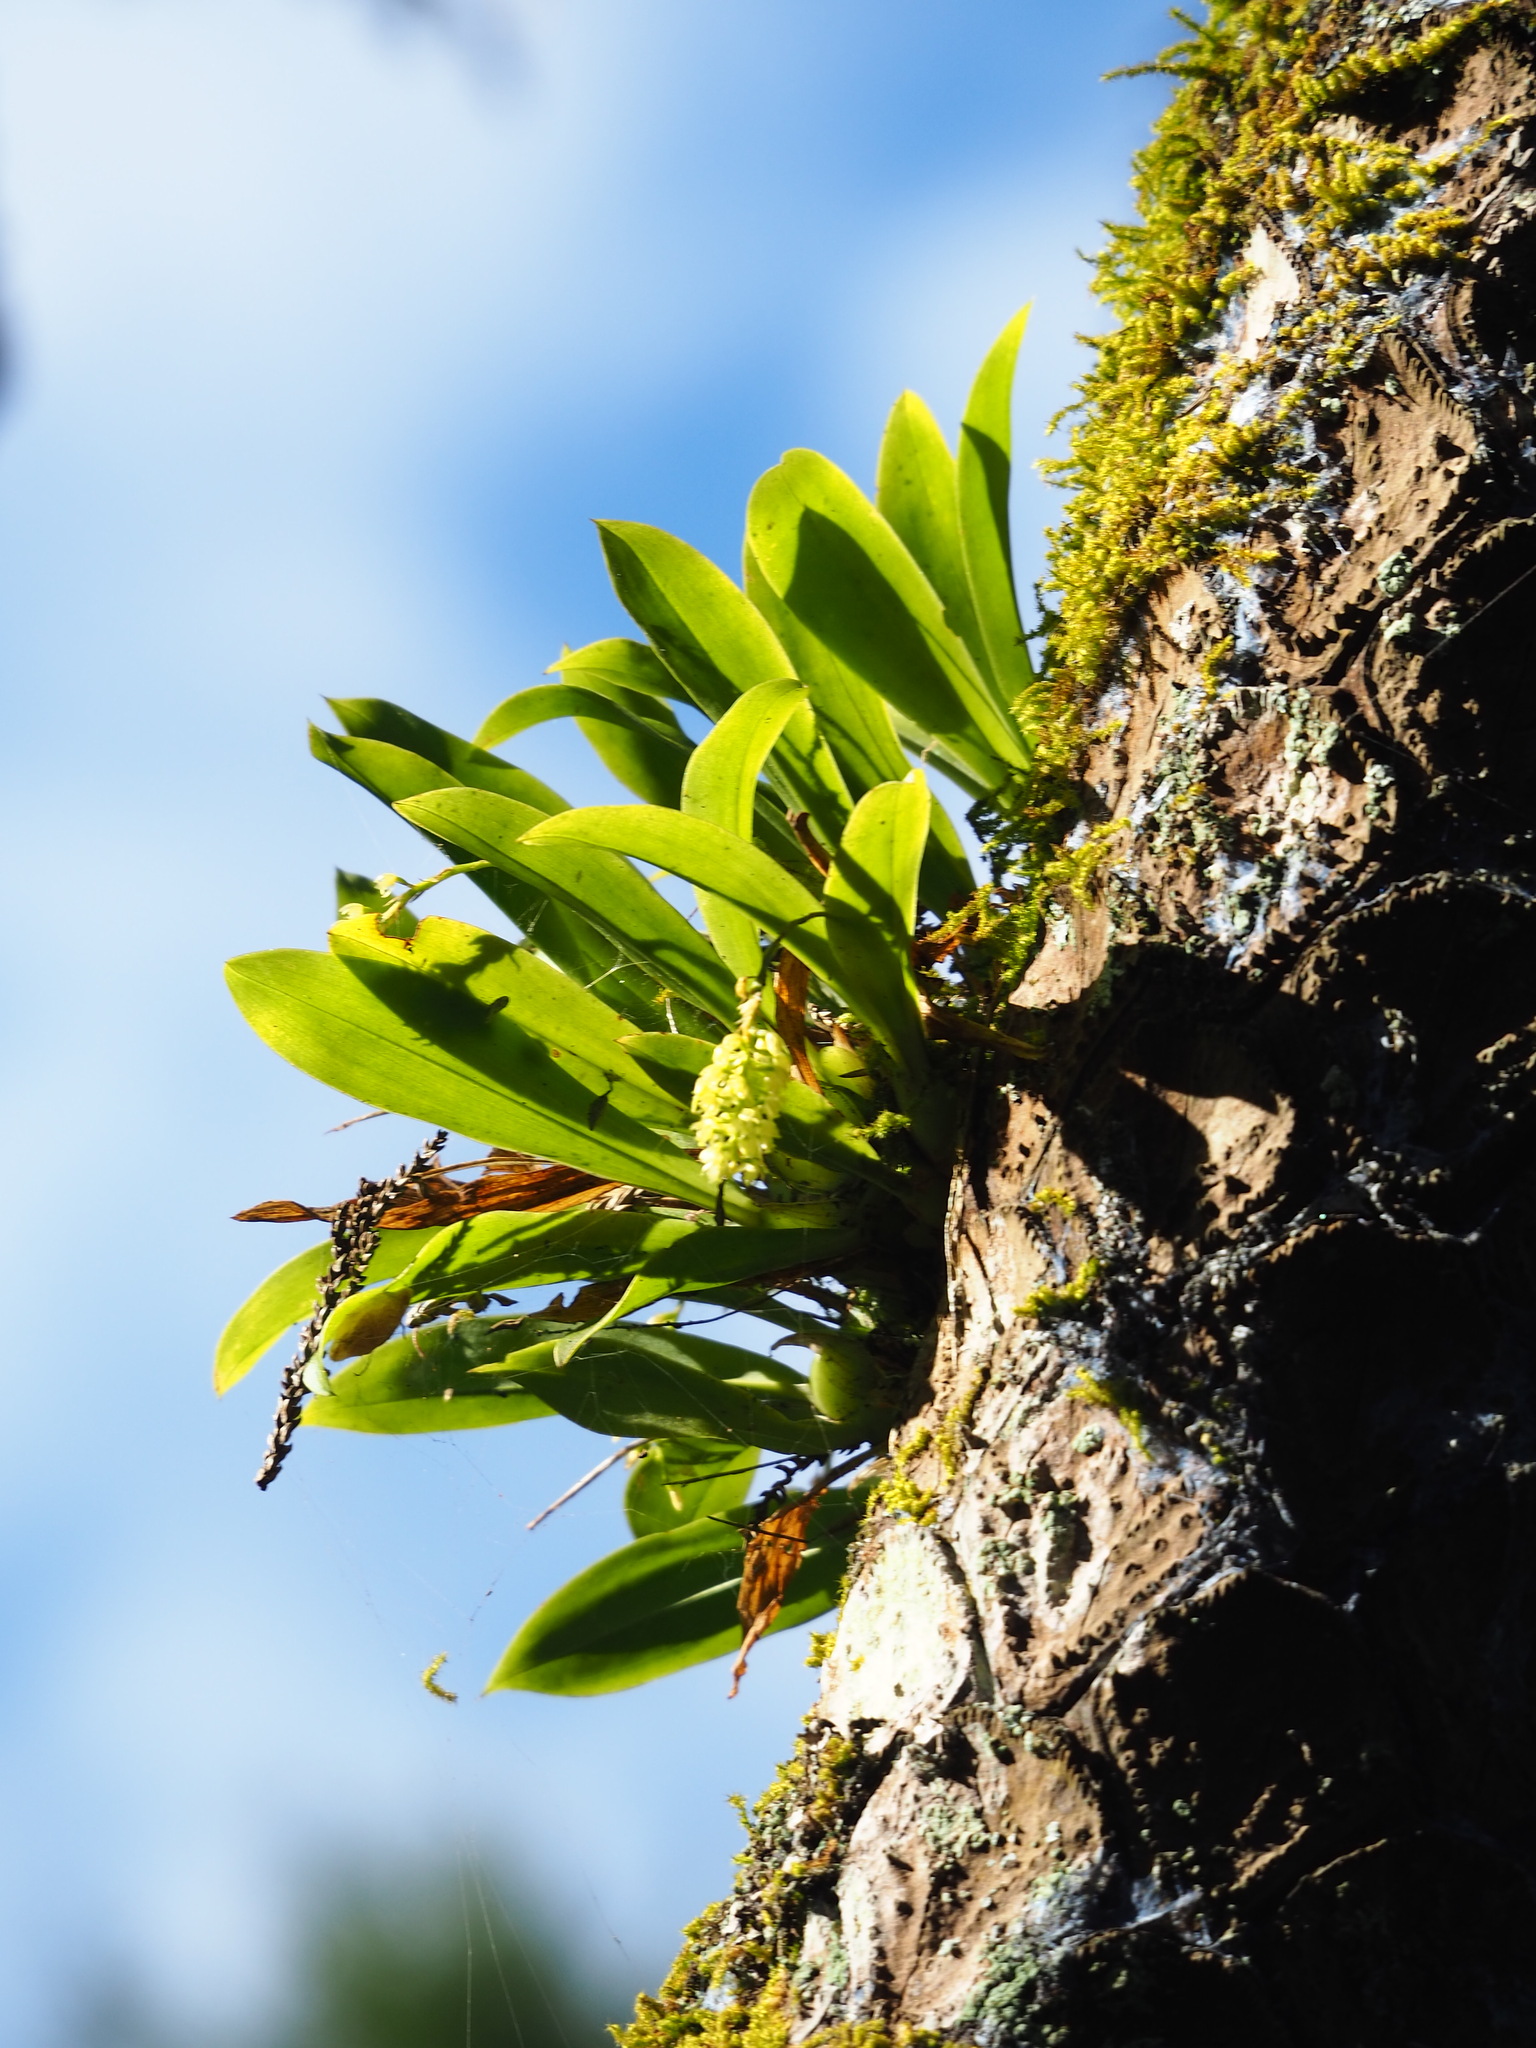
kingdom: Plantae
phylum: Tracheophyta
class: Liliopsida
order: Asparagales
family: Orchidaceae
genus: Liparis
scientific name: Liparis elliptica
